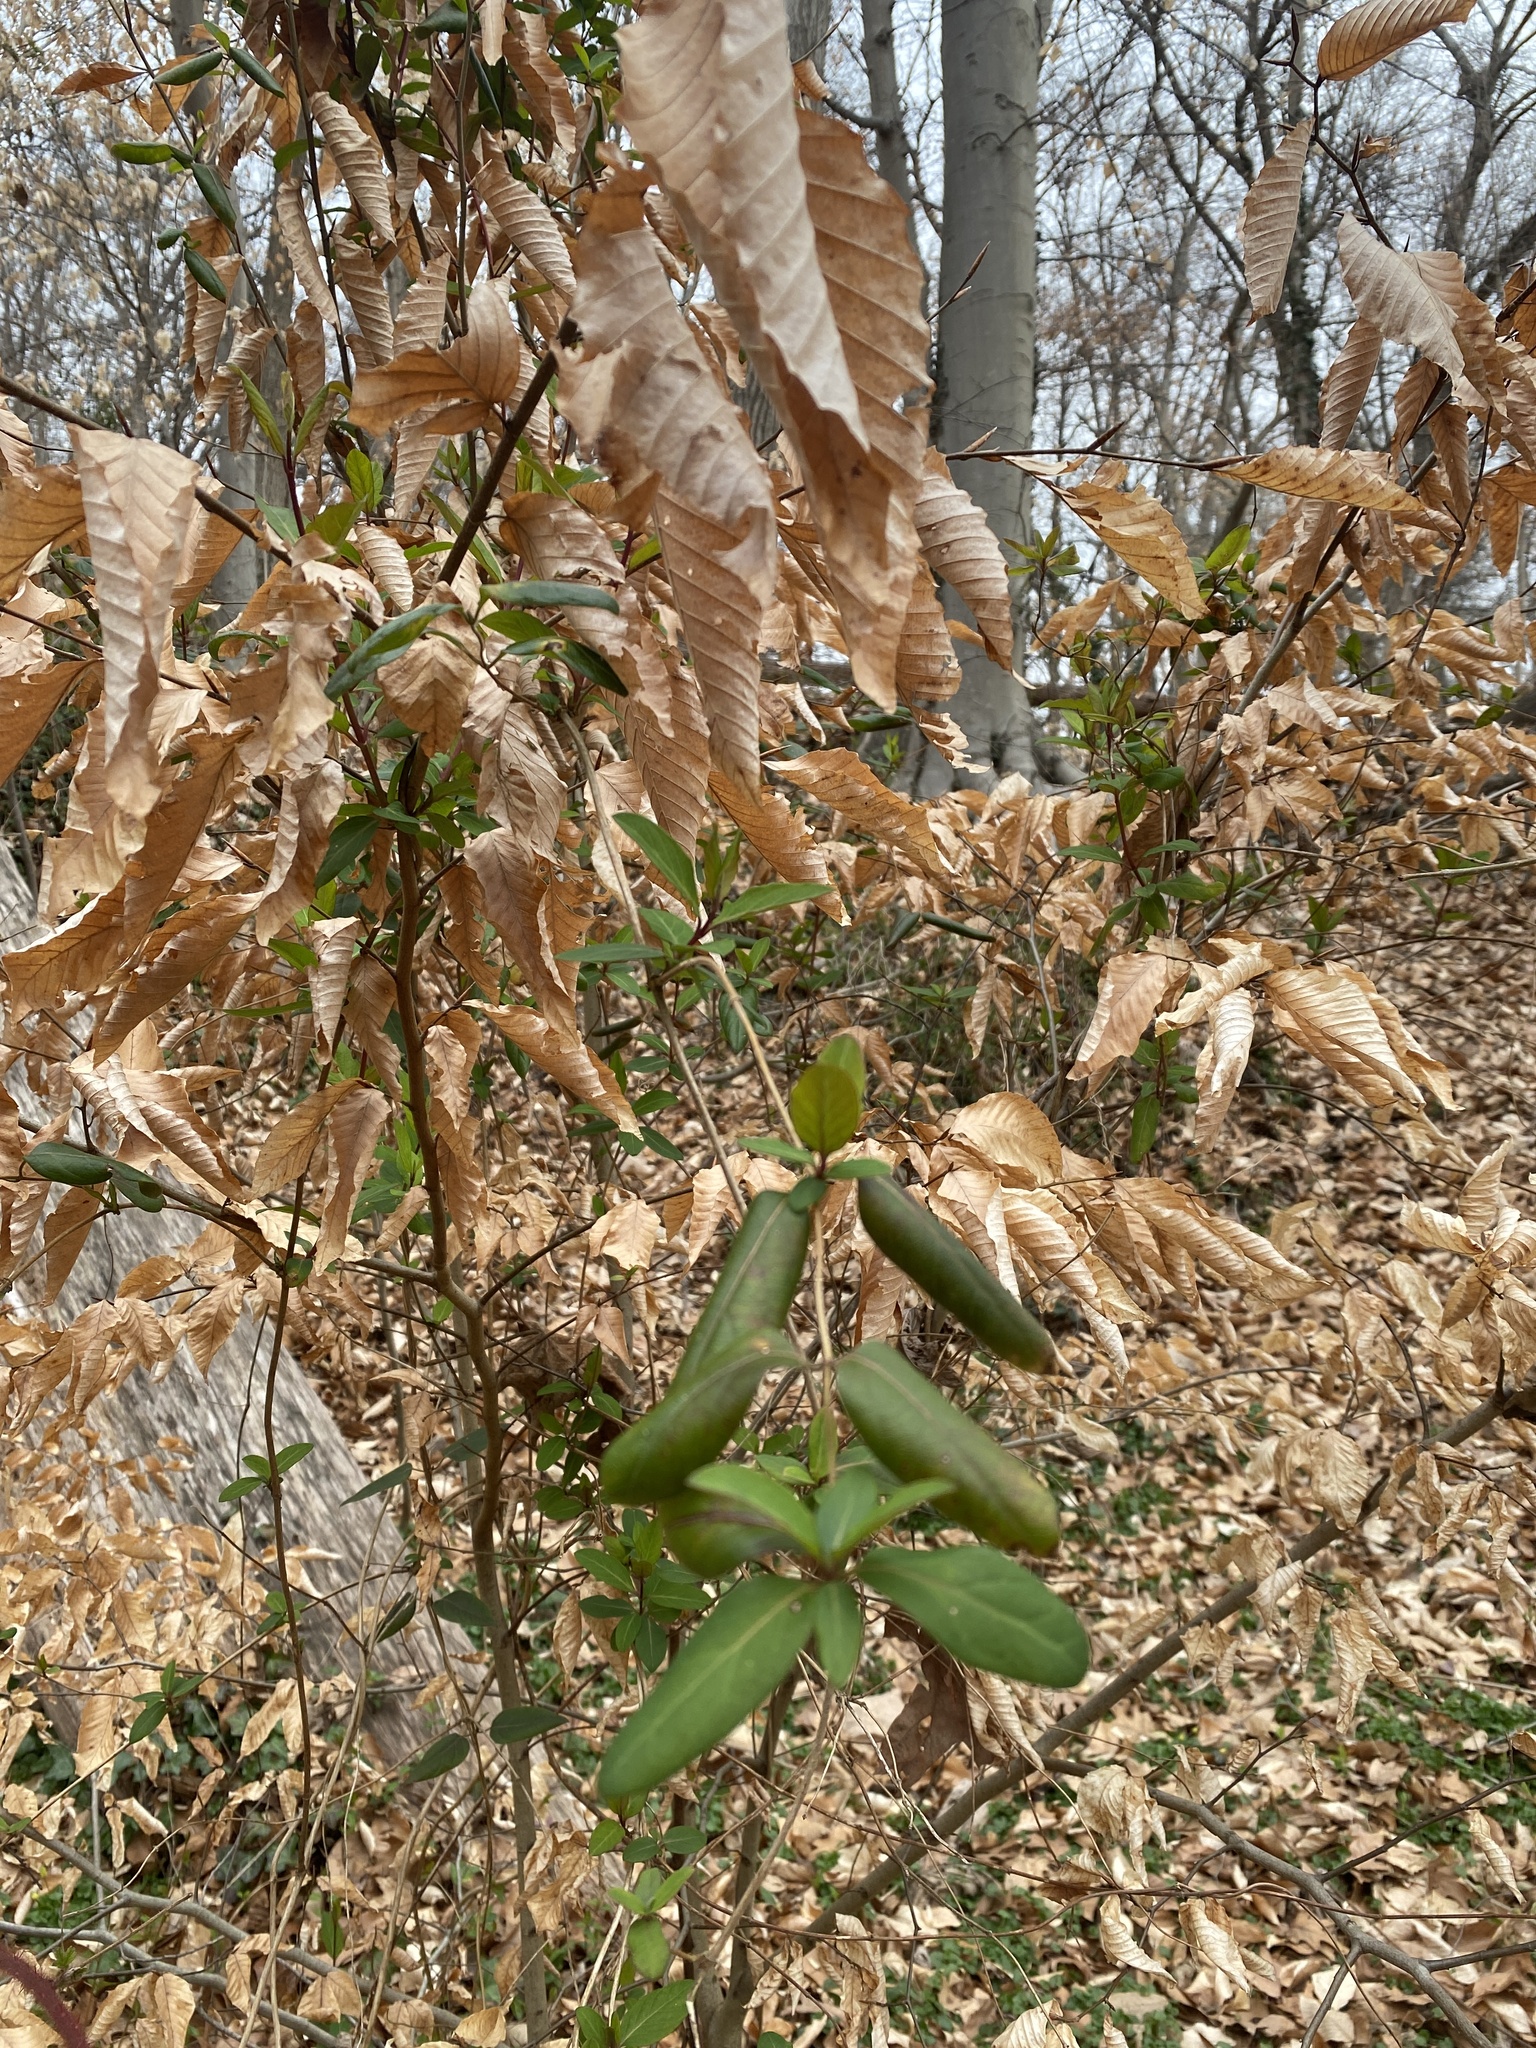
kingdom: Plantae
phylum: Tracheophyta
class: Magnoliopsida
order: Dipsacales
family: Caprifoliaceae
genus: Lonicera
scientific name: Lonicera japonica
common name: Japanese honeysuckle
